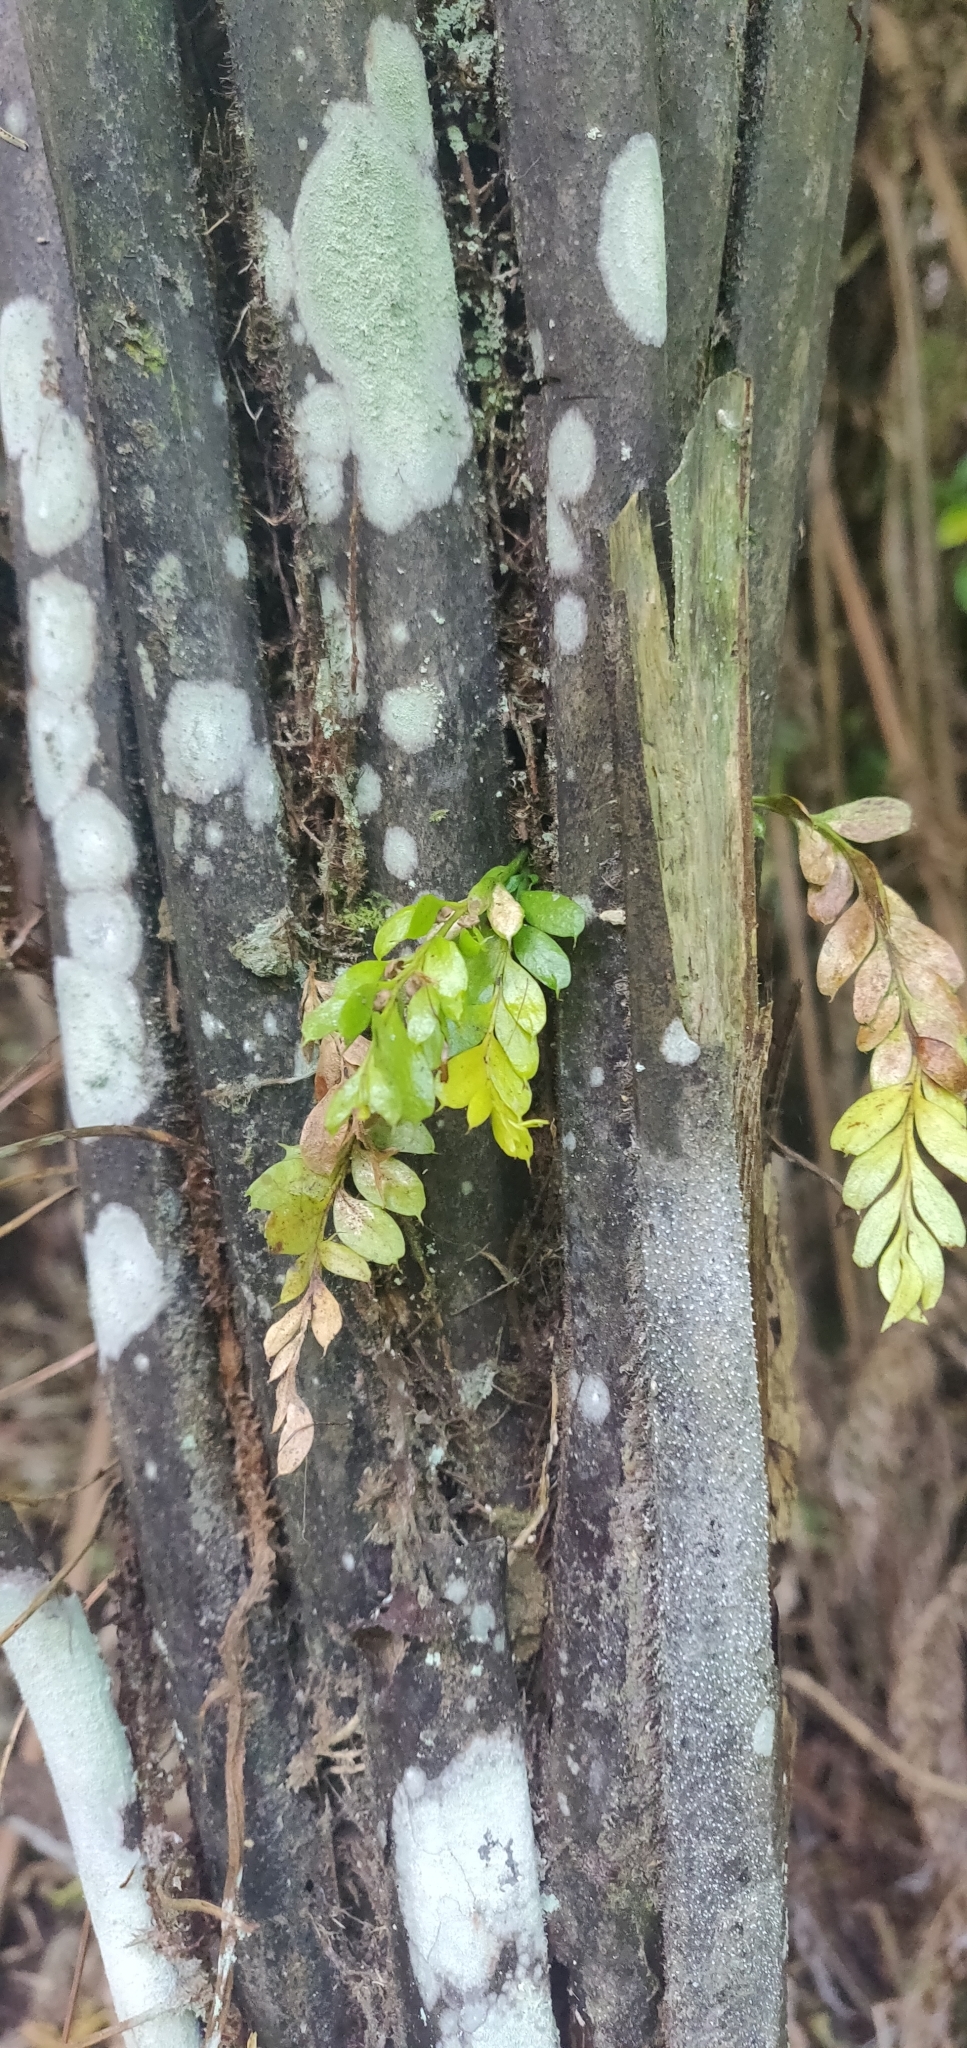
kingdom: Plantae
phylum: Tracheophyta
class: Polypodiopsida
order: Psilotales
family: Psilotaceae
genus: Tmesipteris
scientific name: Tmesipteris lanceolata
